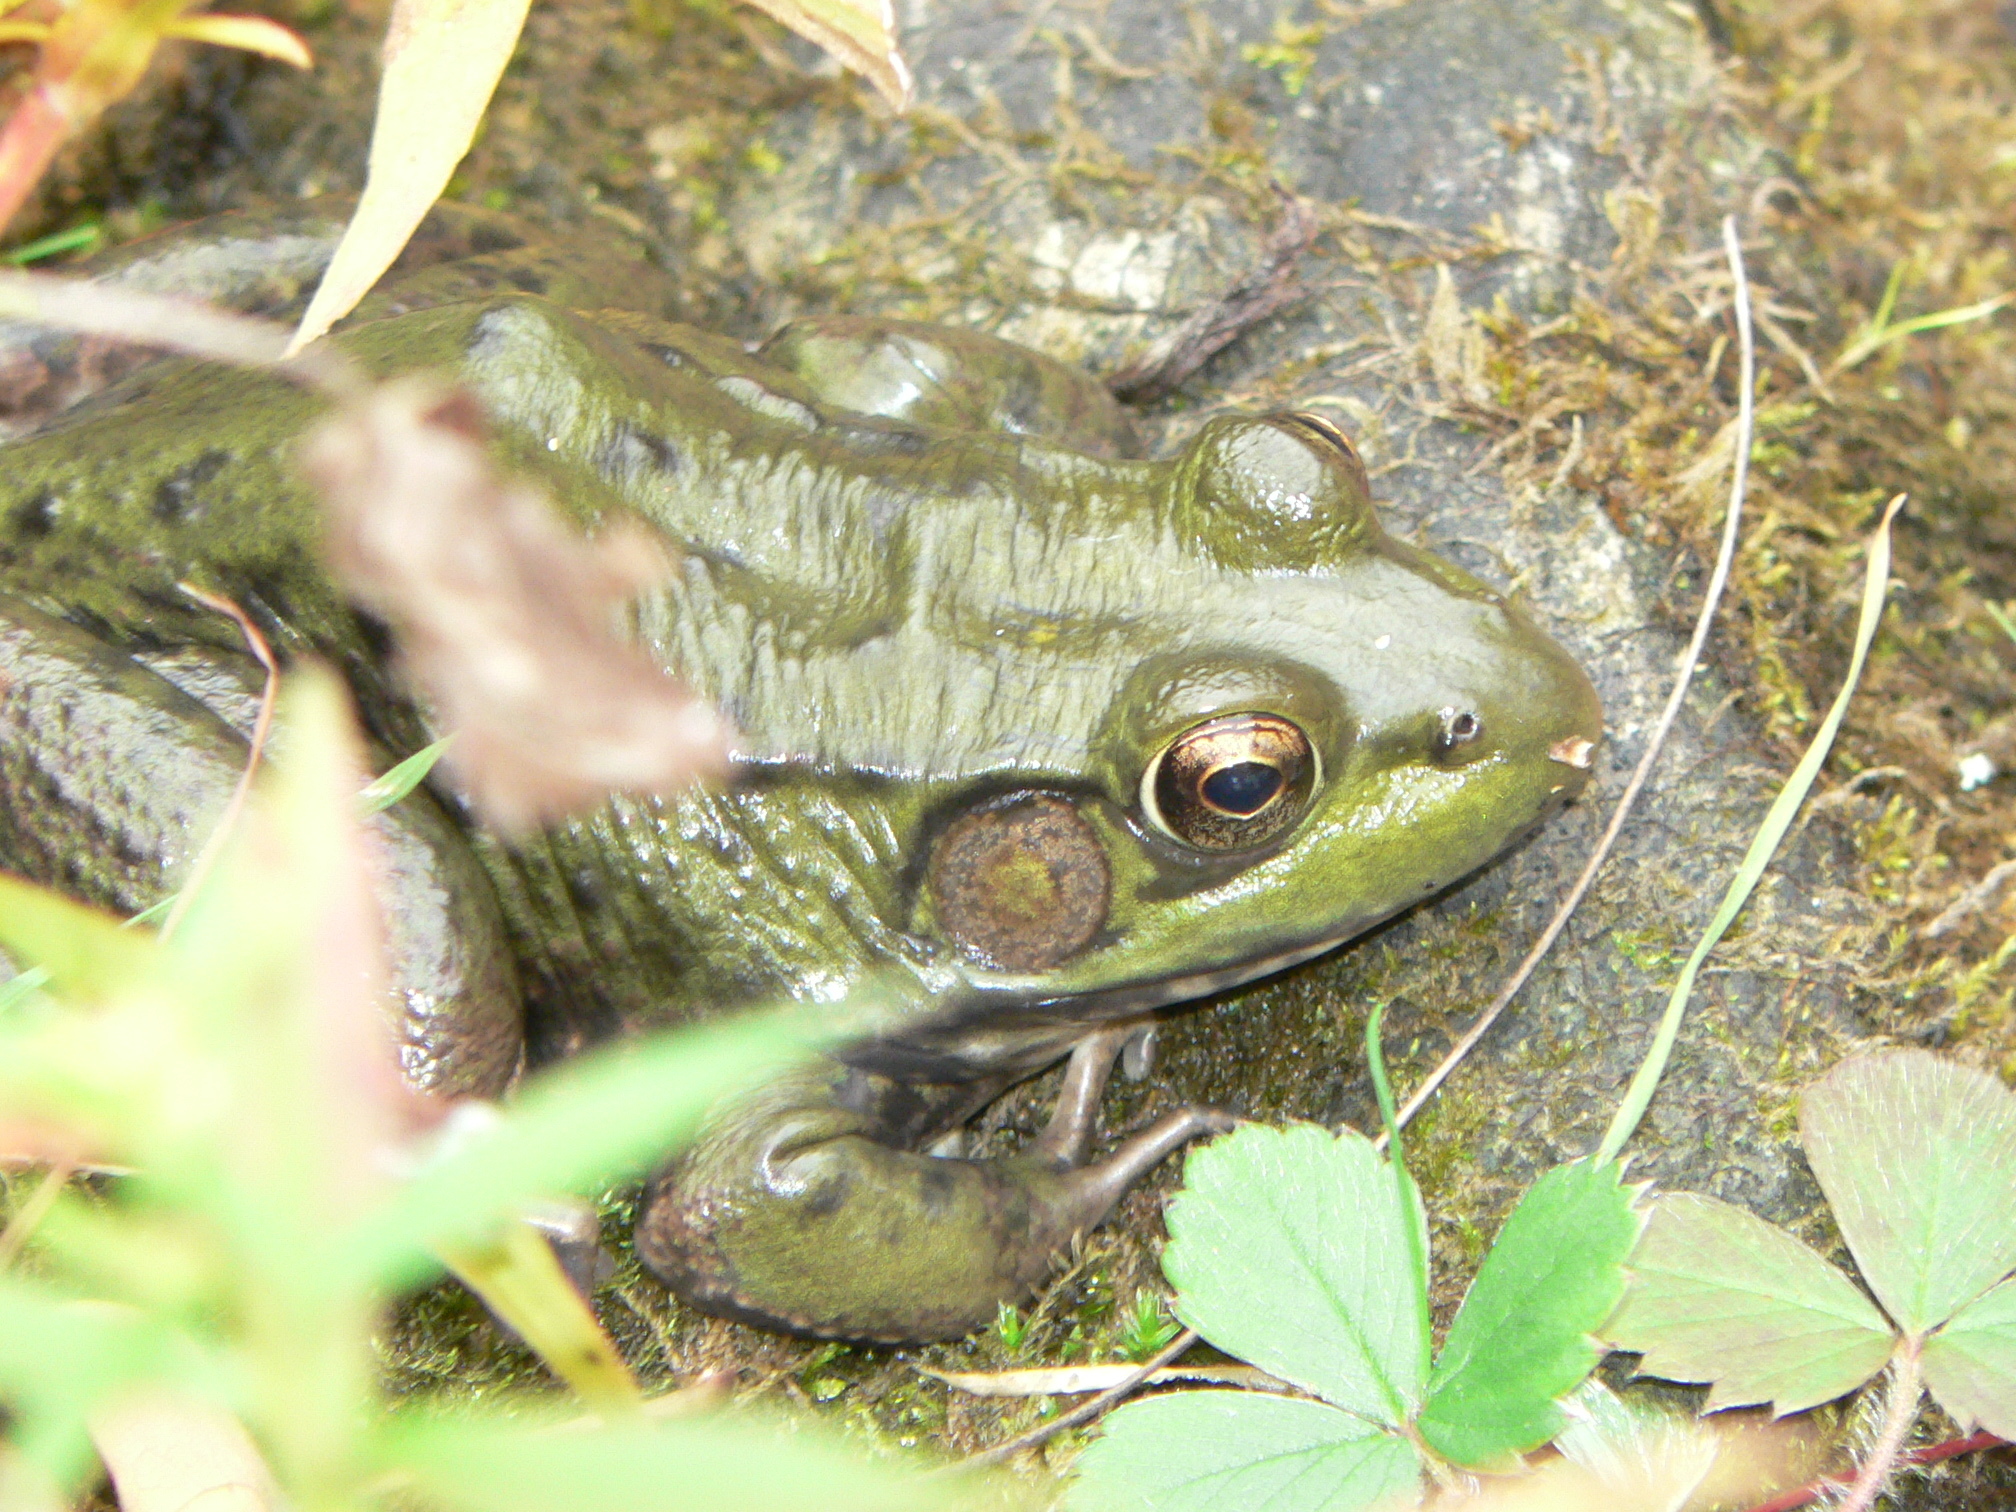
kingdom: Animalia
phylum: Chordata
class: Amphibia
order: Anura
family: Ranidae
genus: Lithobates
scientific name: Lithobates clamitans
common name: Green frog
